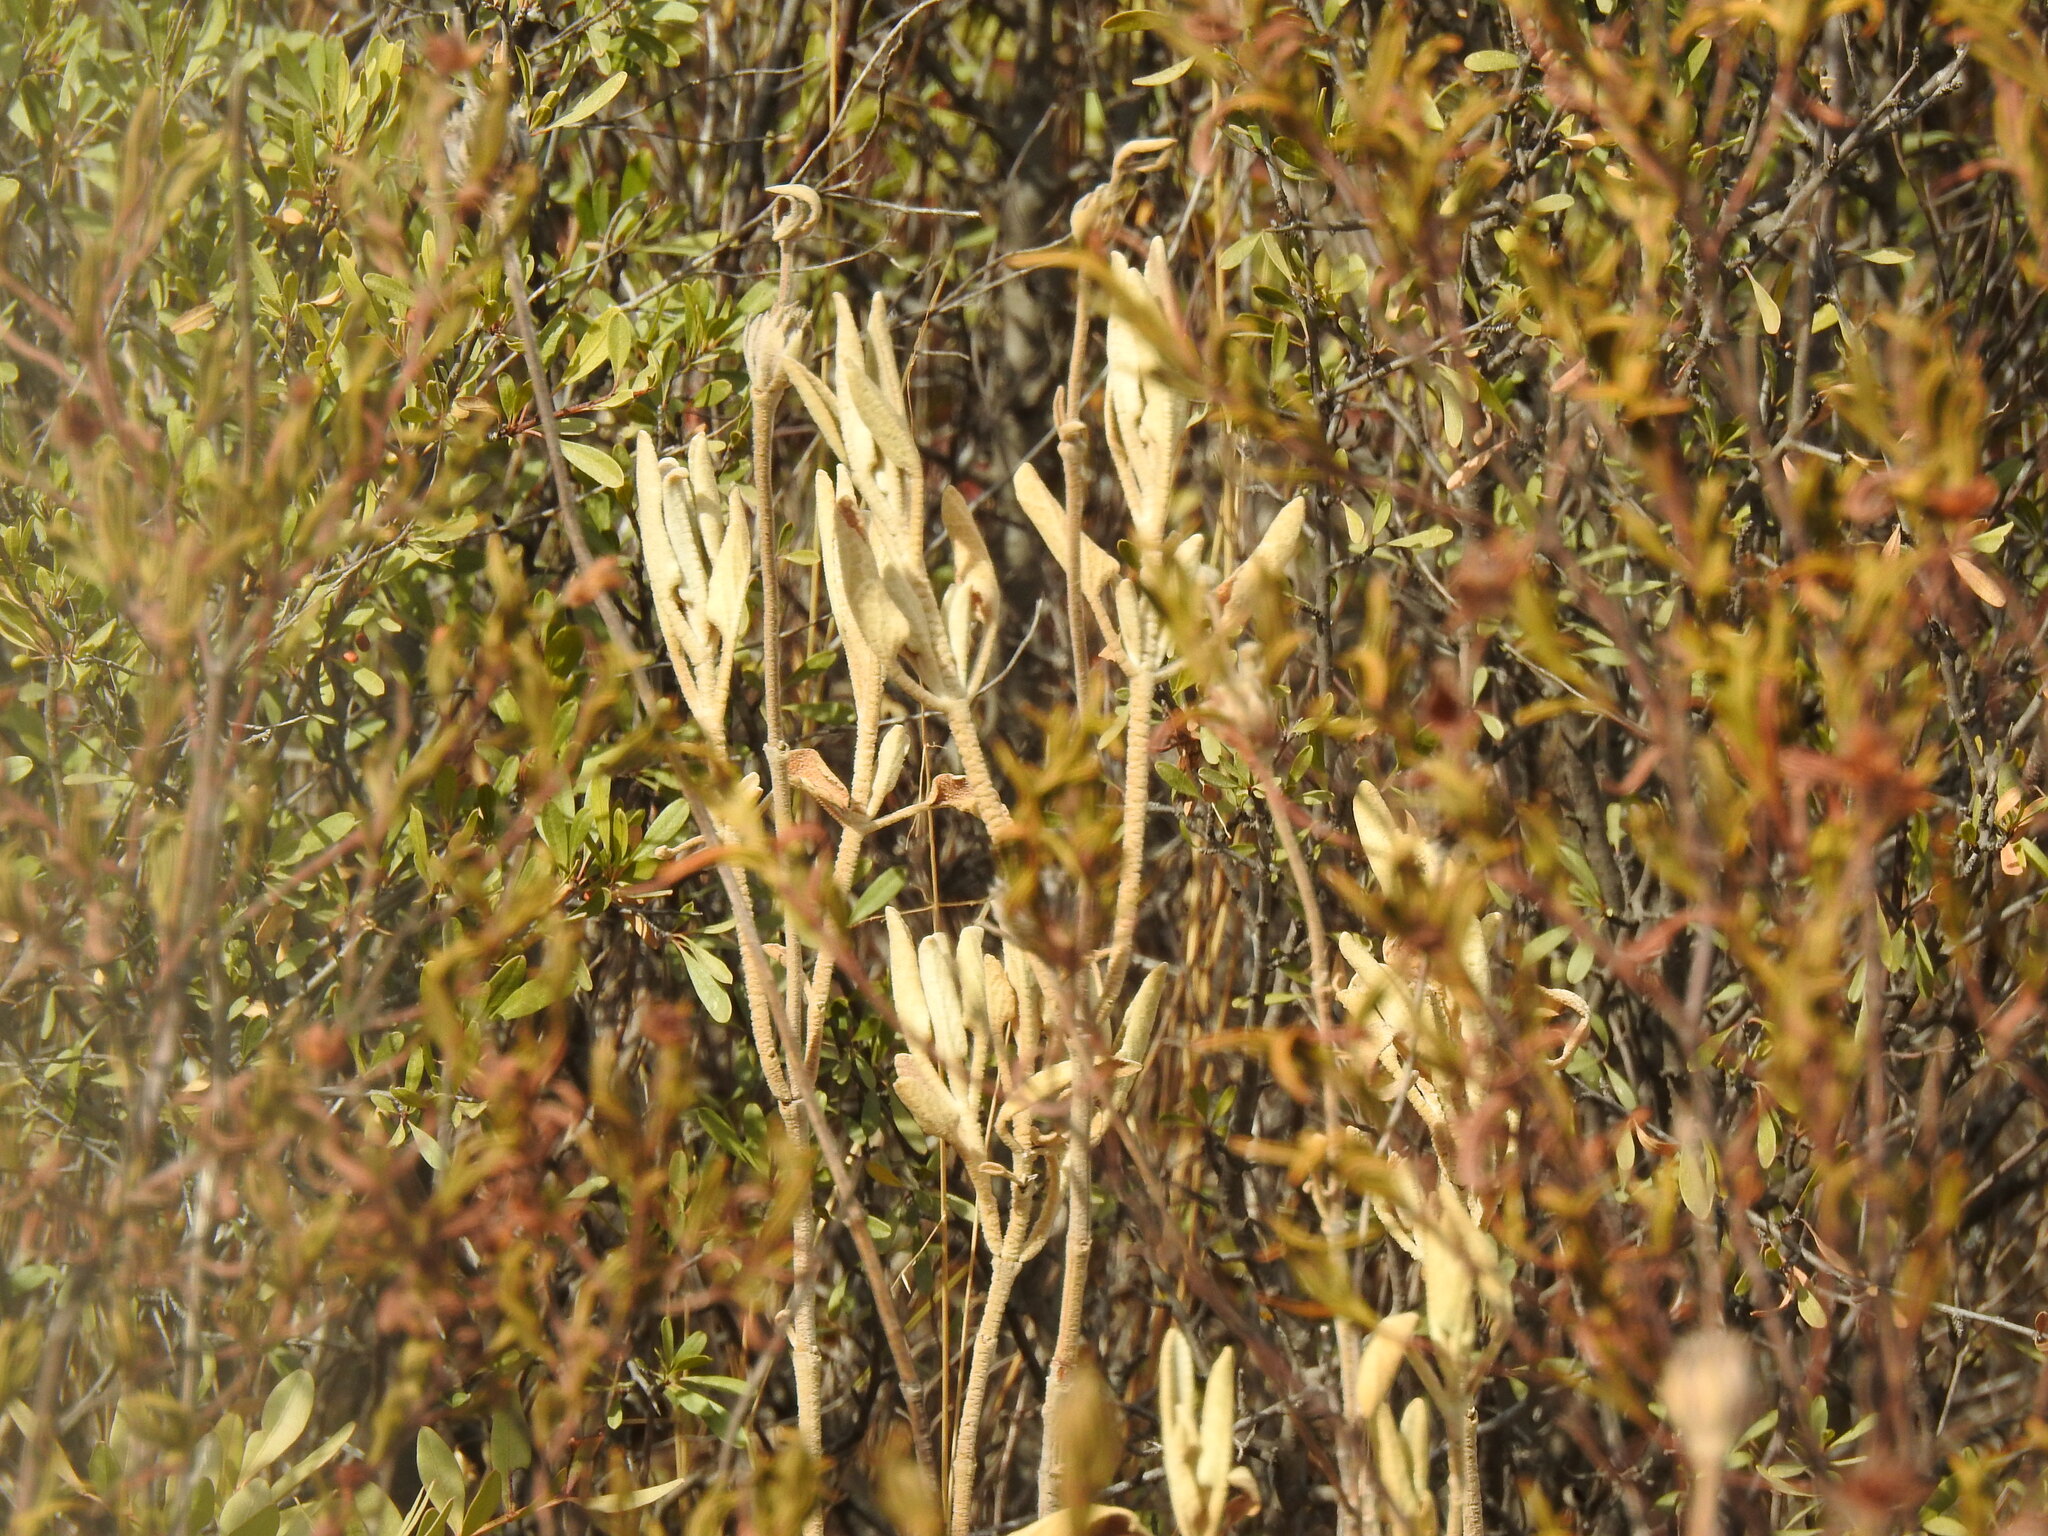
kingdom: Plantae
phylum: Tracheophyta
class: Magnoliopsida
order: Lamiales
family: Lamiaceae
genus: Phlomis
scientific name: Phlomis purpurea
